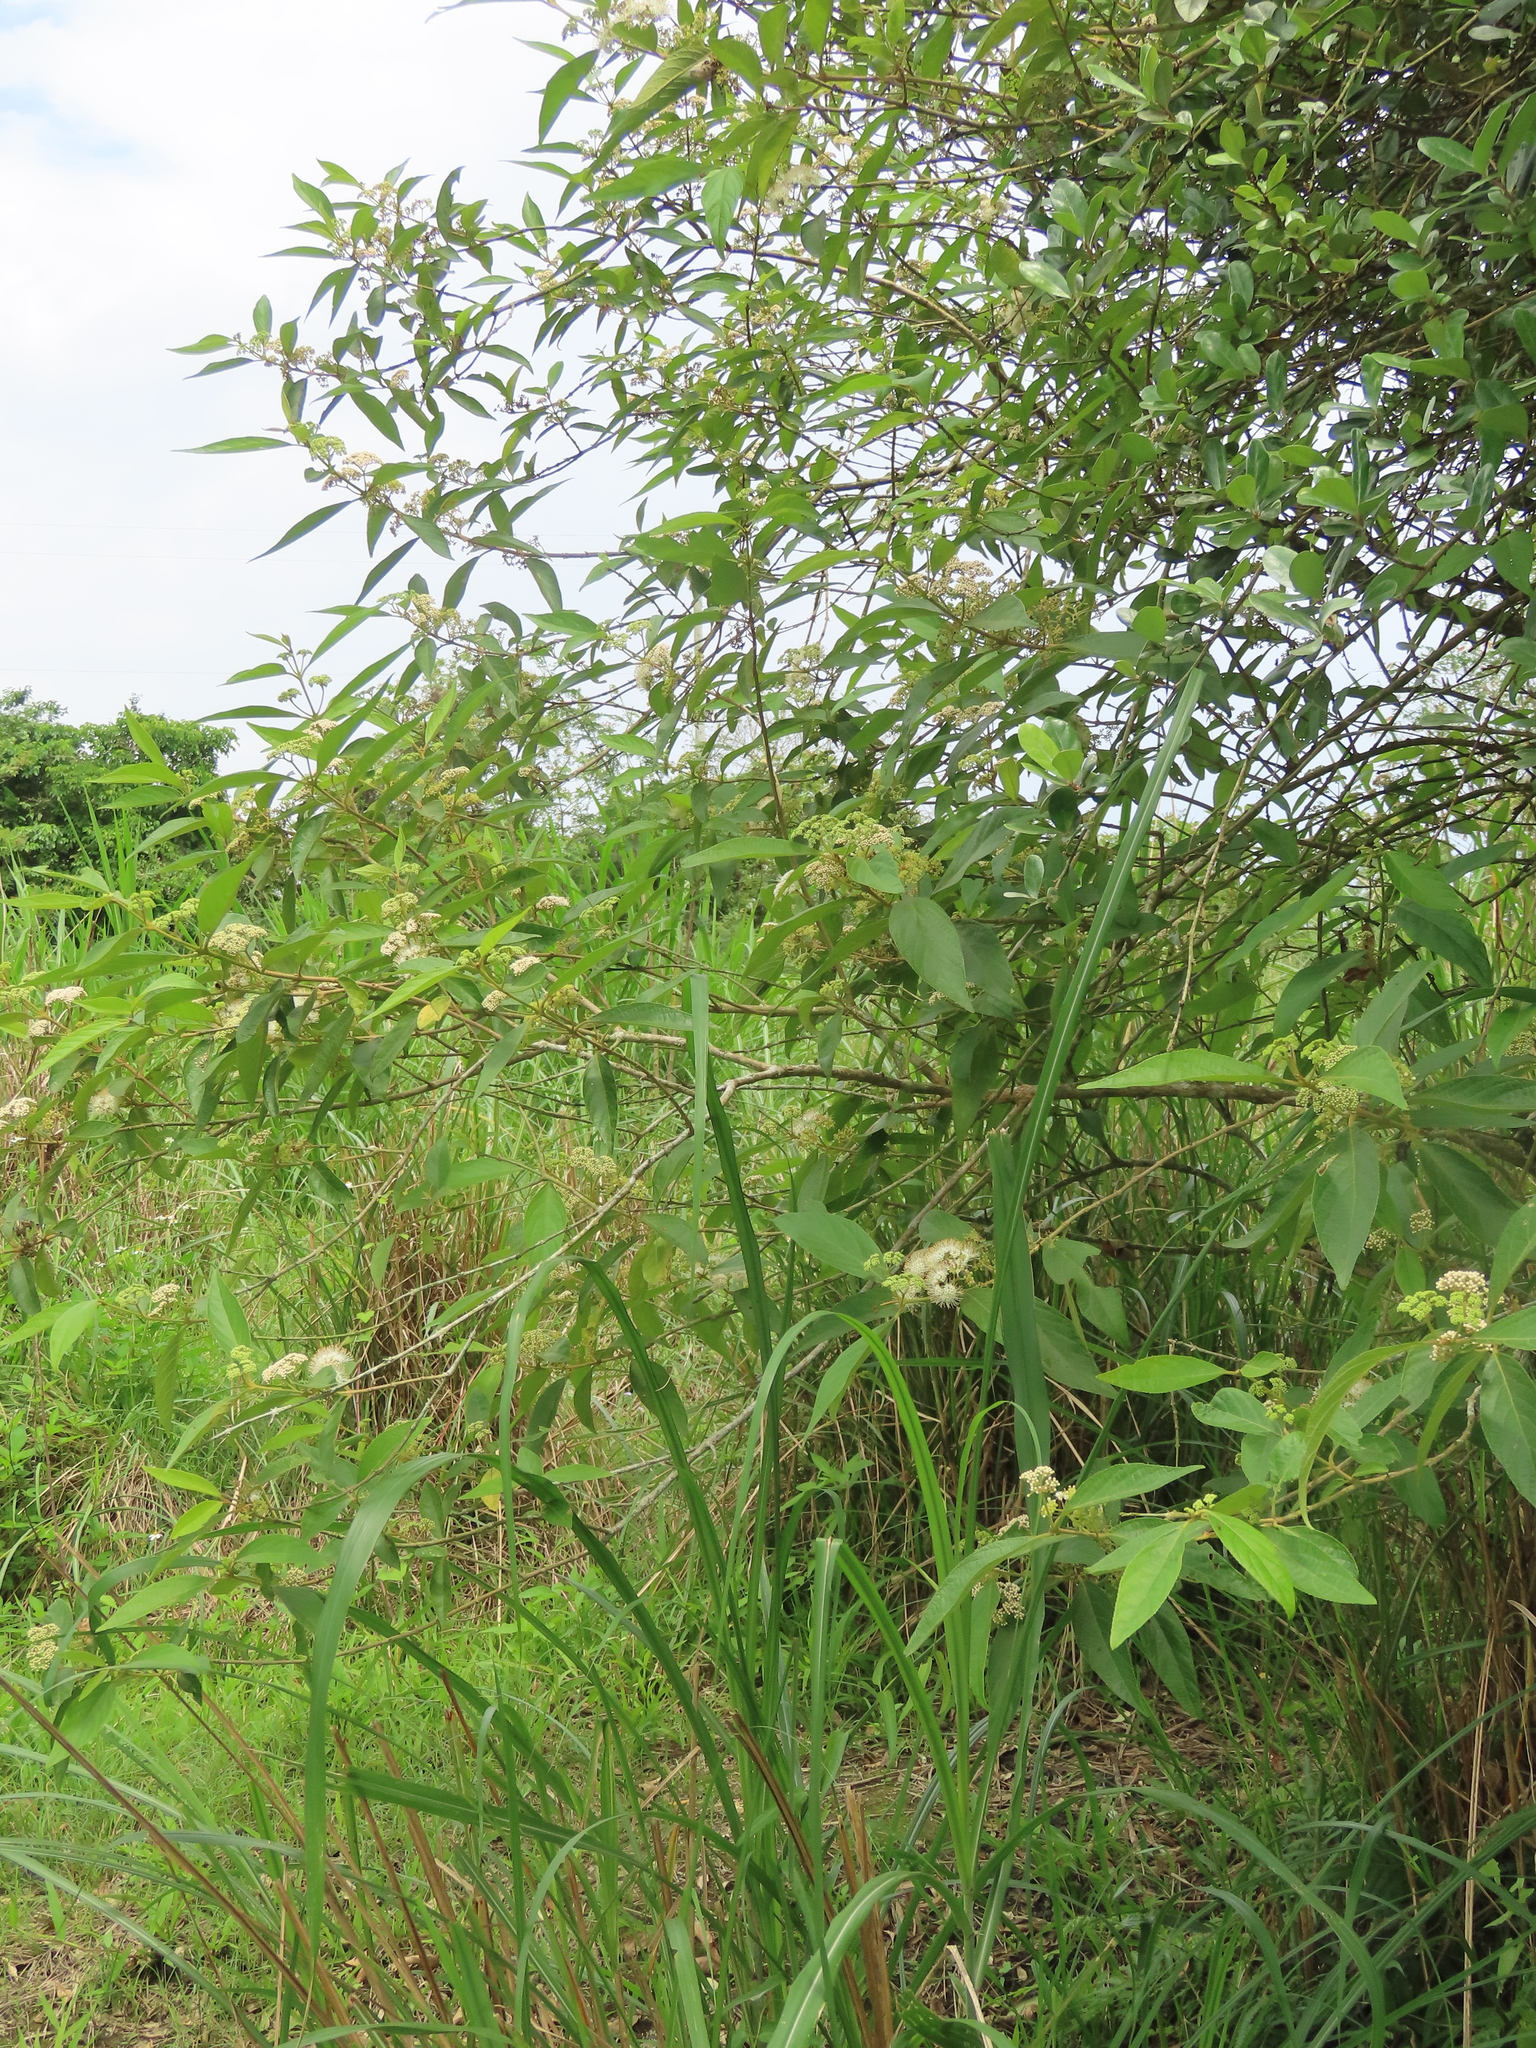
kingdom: Plantae
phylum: Tracheophyta
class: Magnoliopsida
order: Lamiales
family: Lamiaceae
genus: Callicarpa
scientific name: Callicarpa pedunculata
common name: Velvetleaf
